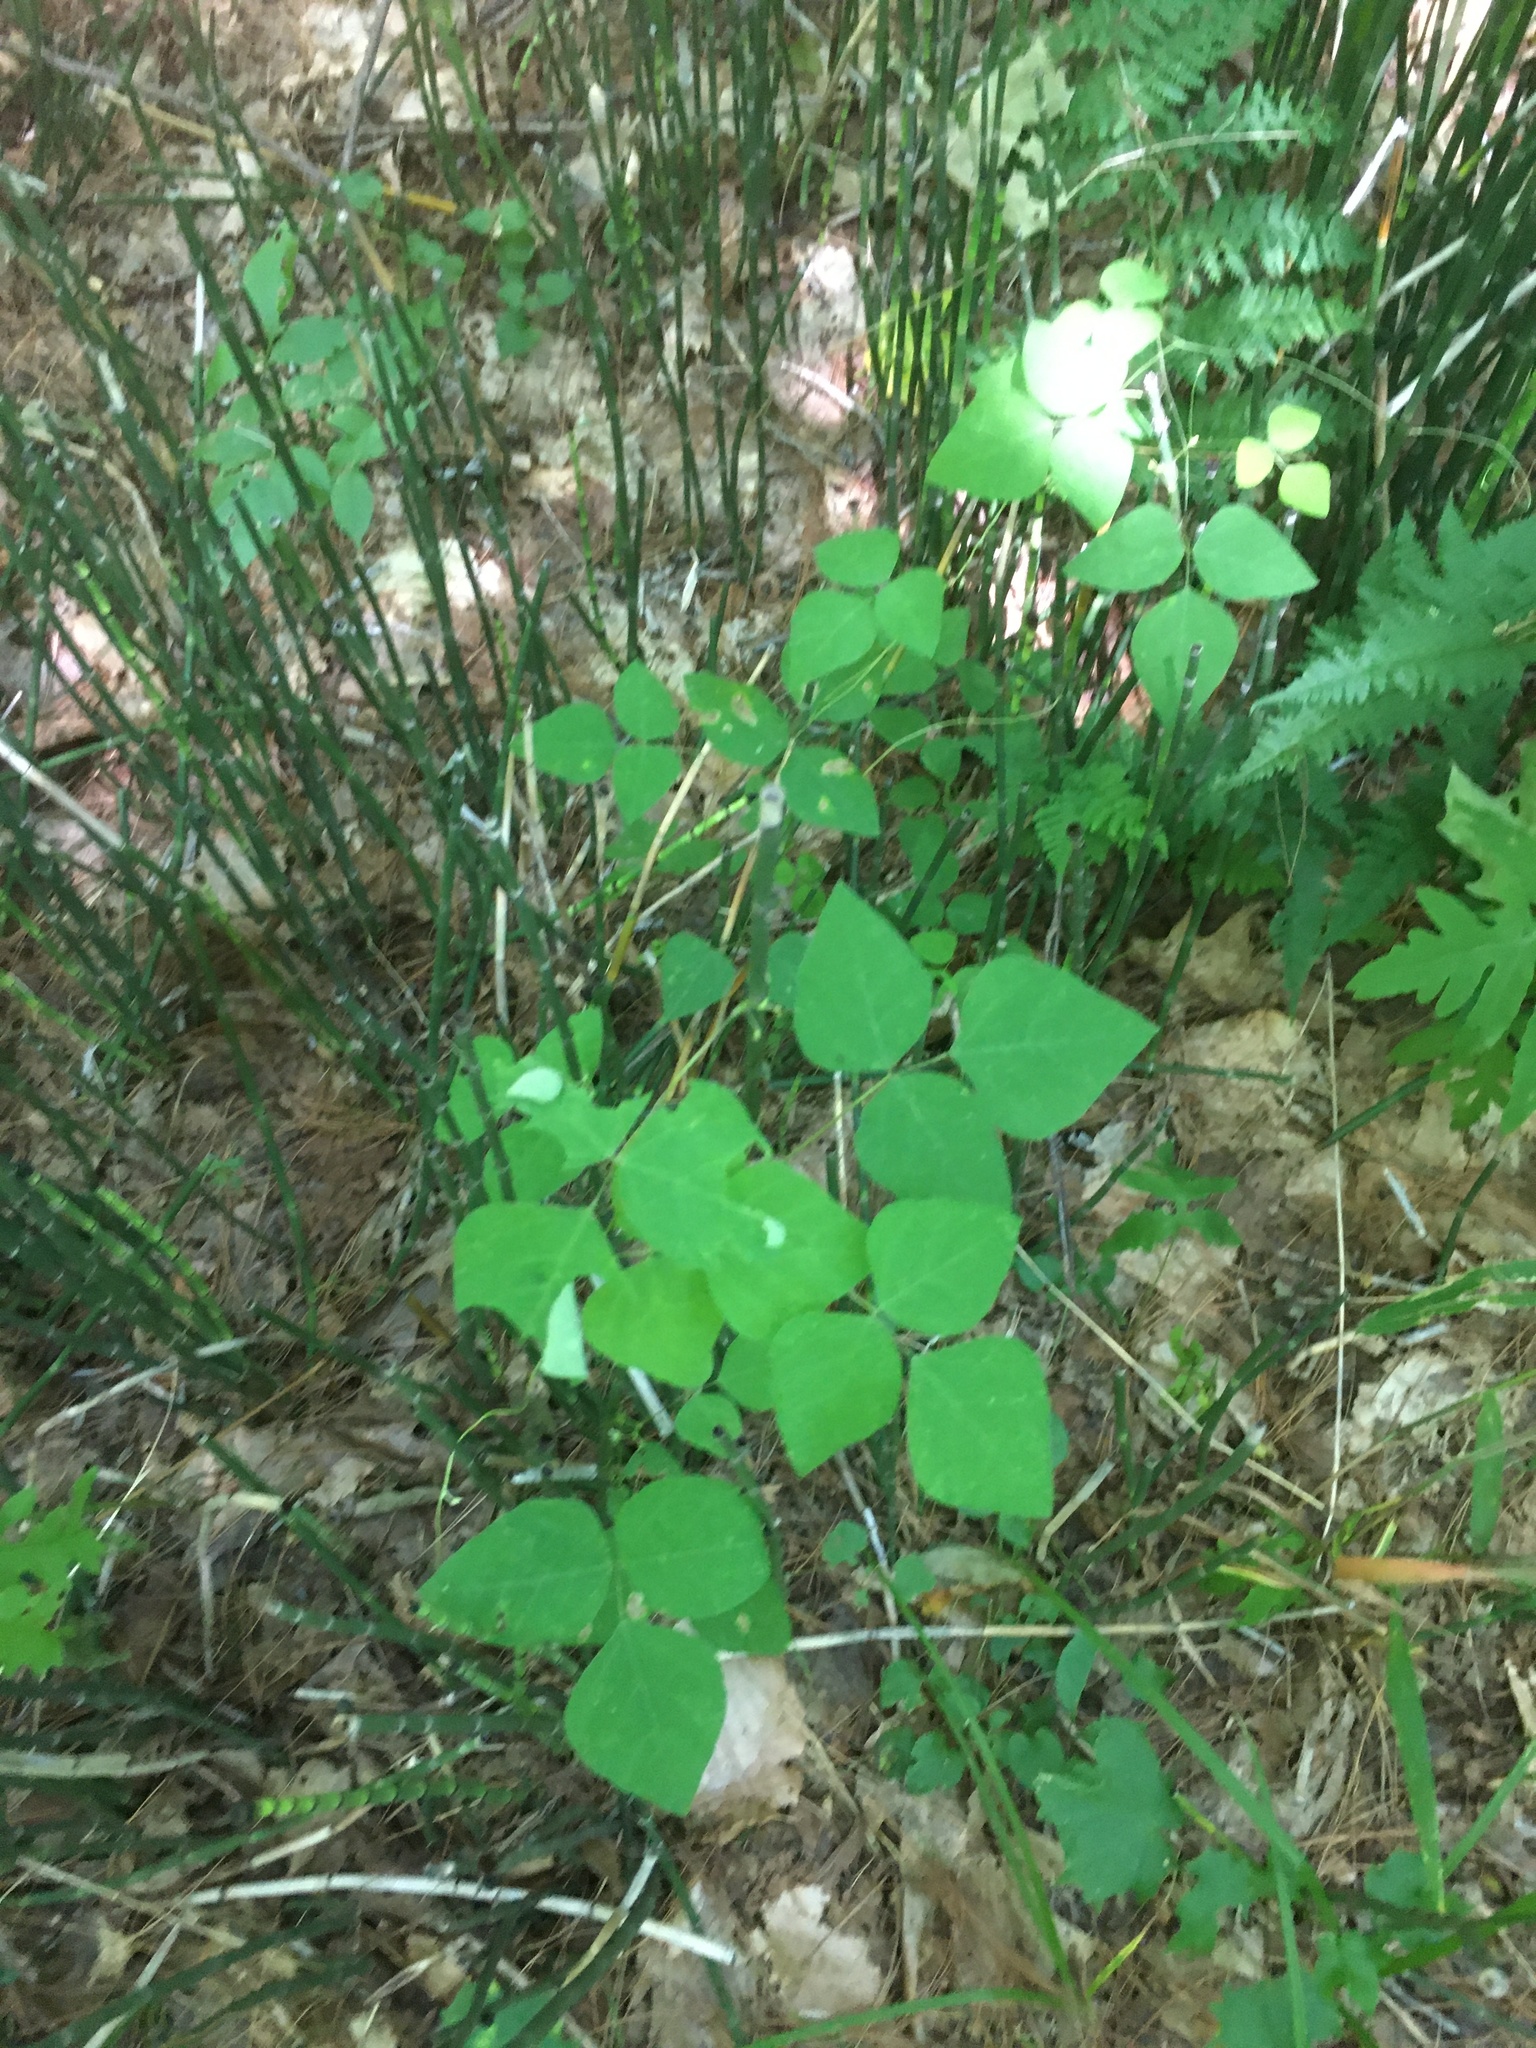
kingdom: Plantae
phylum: Tracheophyta
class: Magnoliopsida
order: Fabales
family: Fabaceae
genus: Amphicarpaea
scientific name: Amphicarpaea bracteata
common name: American hog peanut
